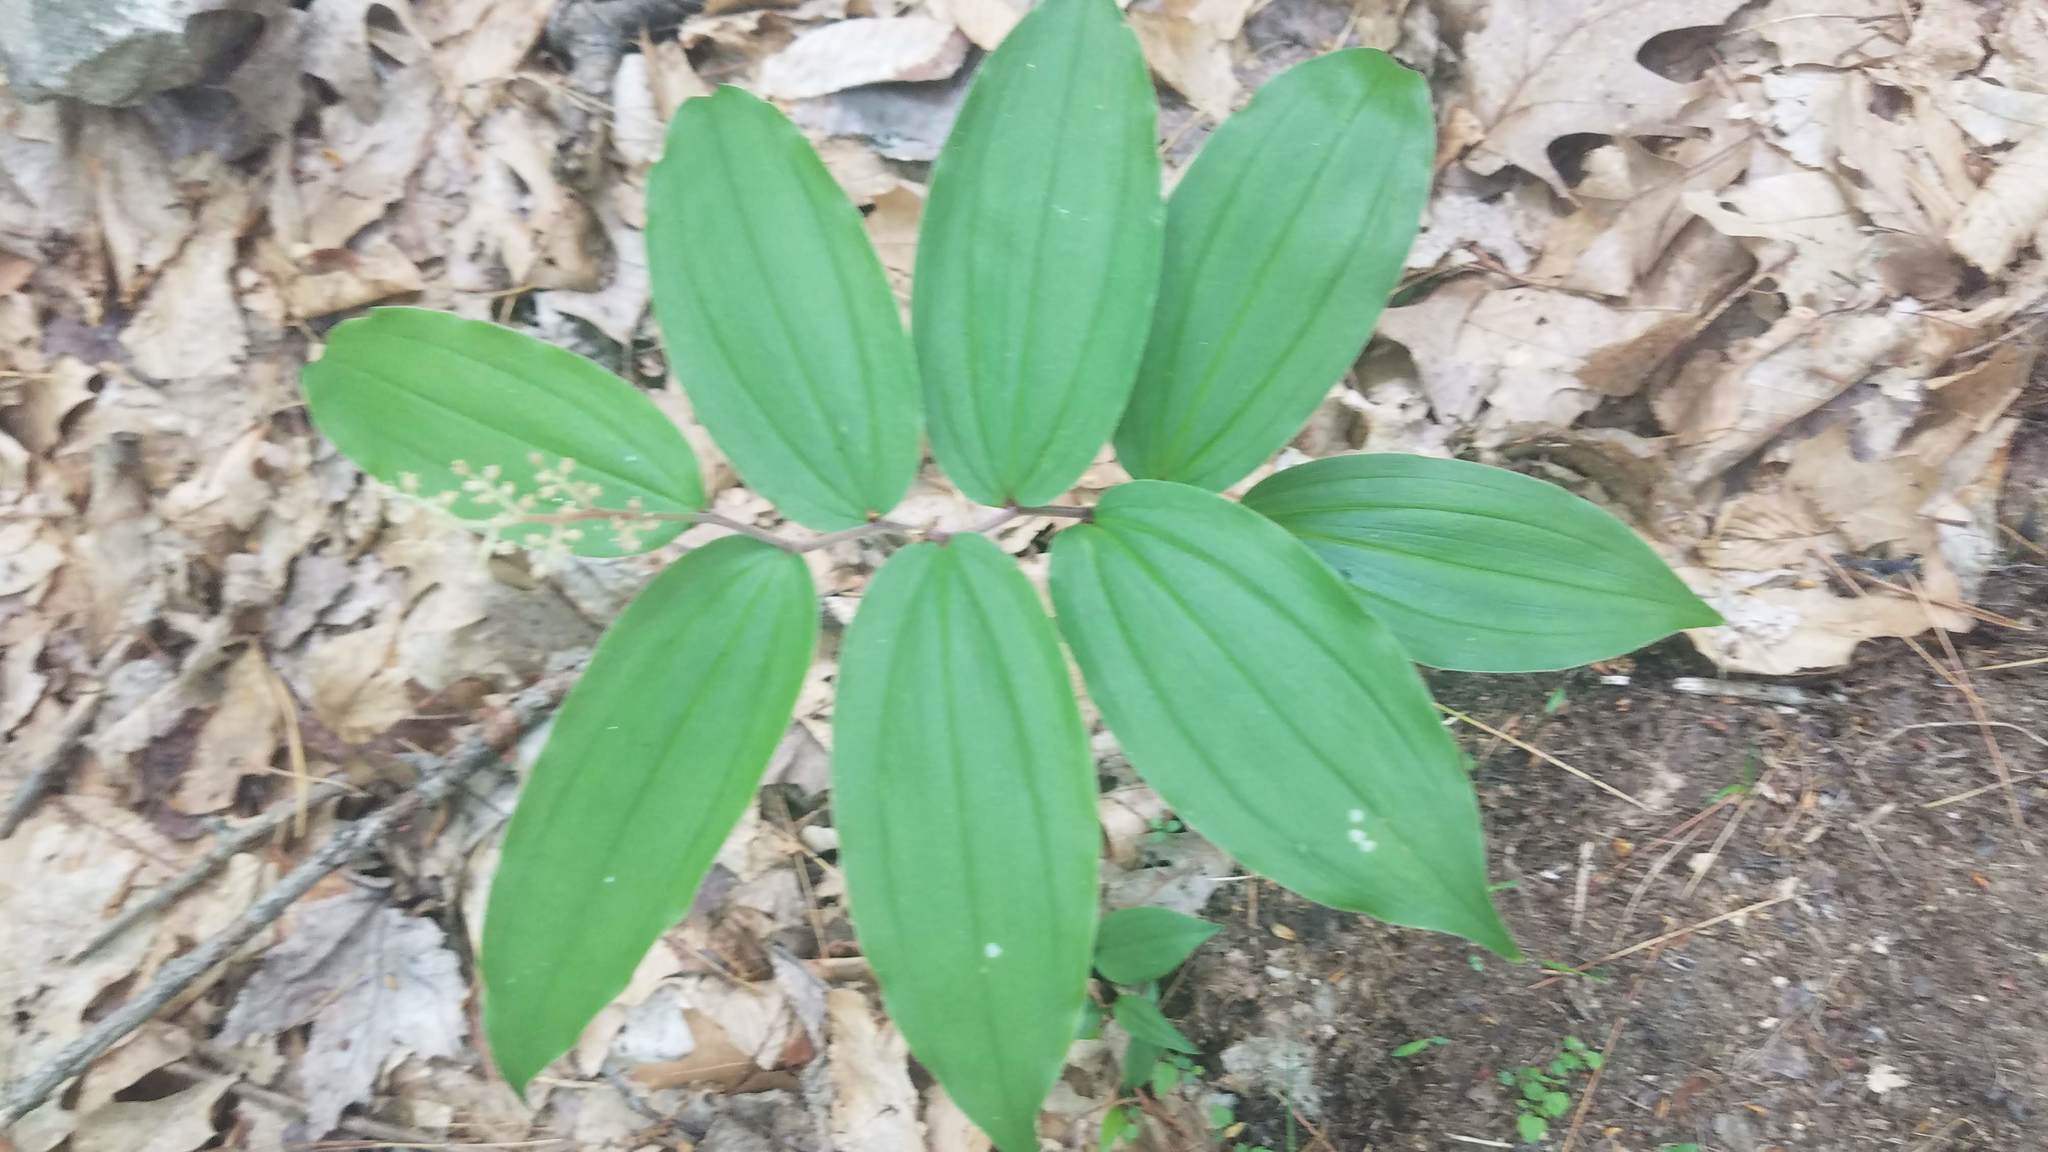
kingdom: Plantae
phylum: Tracheophyta
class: Liliopsida
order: Asparagales
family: Asparagaceae
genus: Maianthemum
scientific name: Maianthemum racemosum
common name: False spikenard
